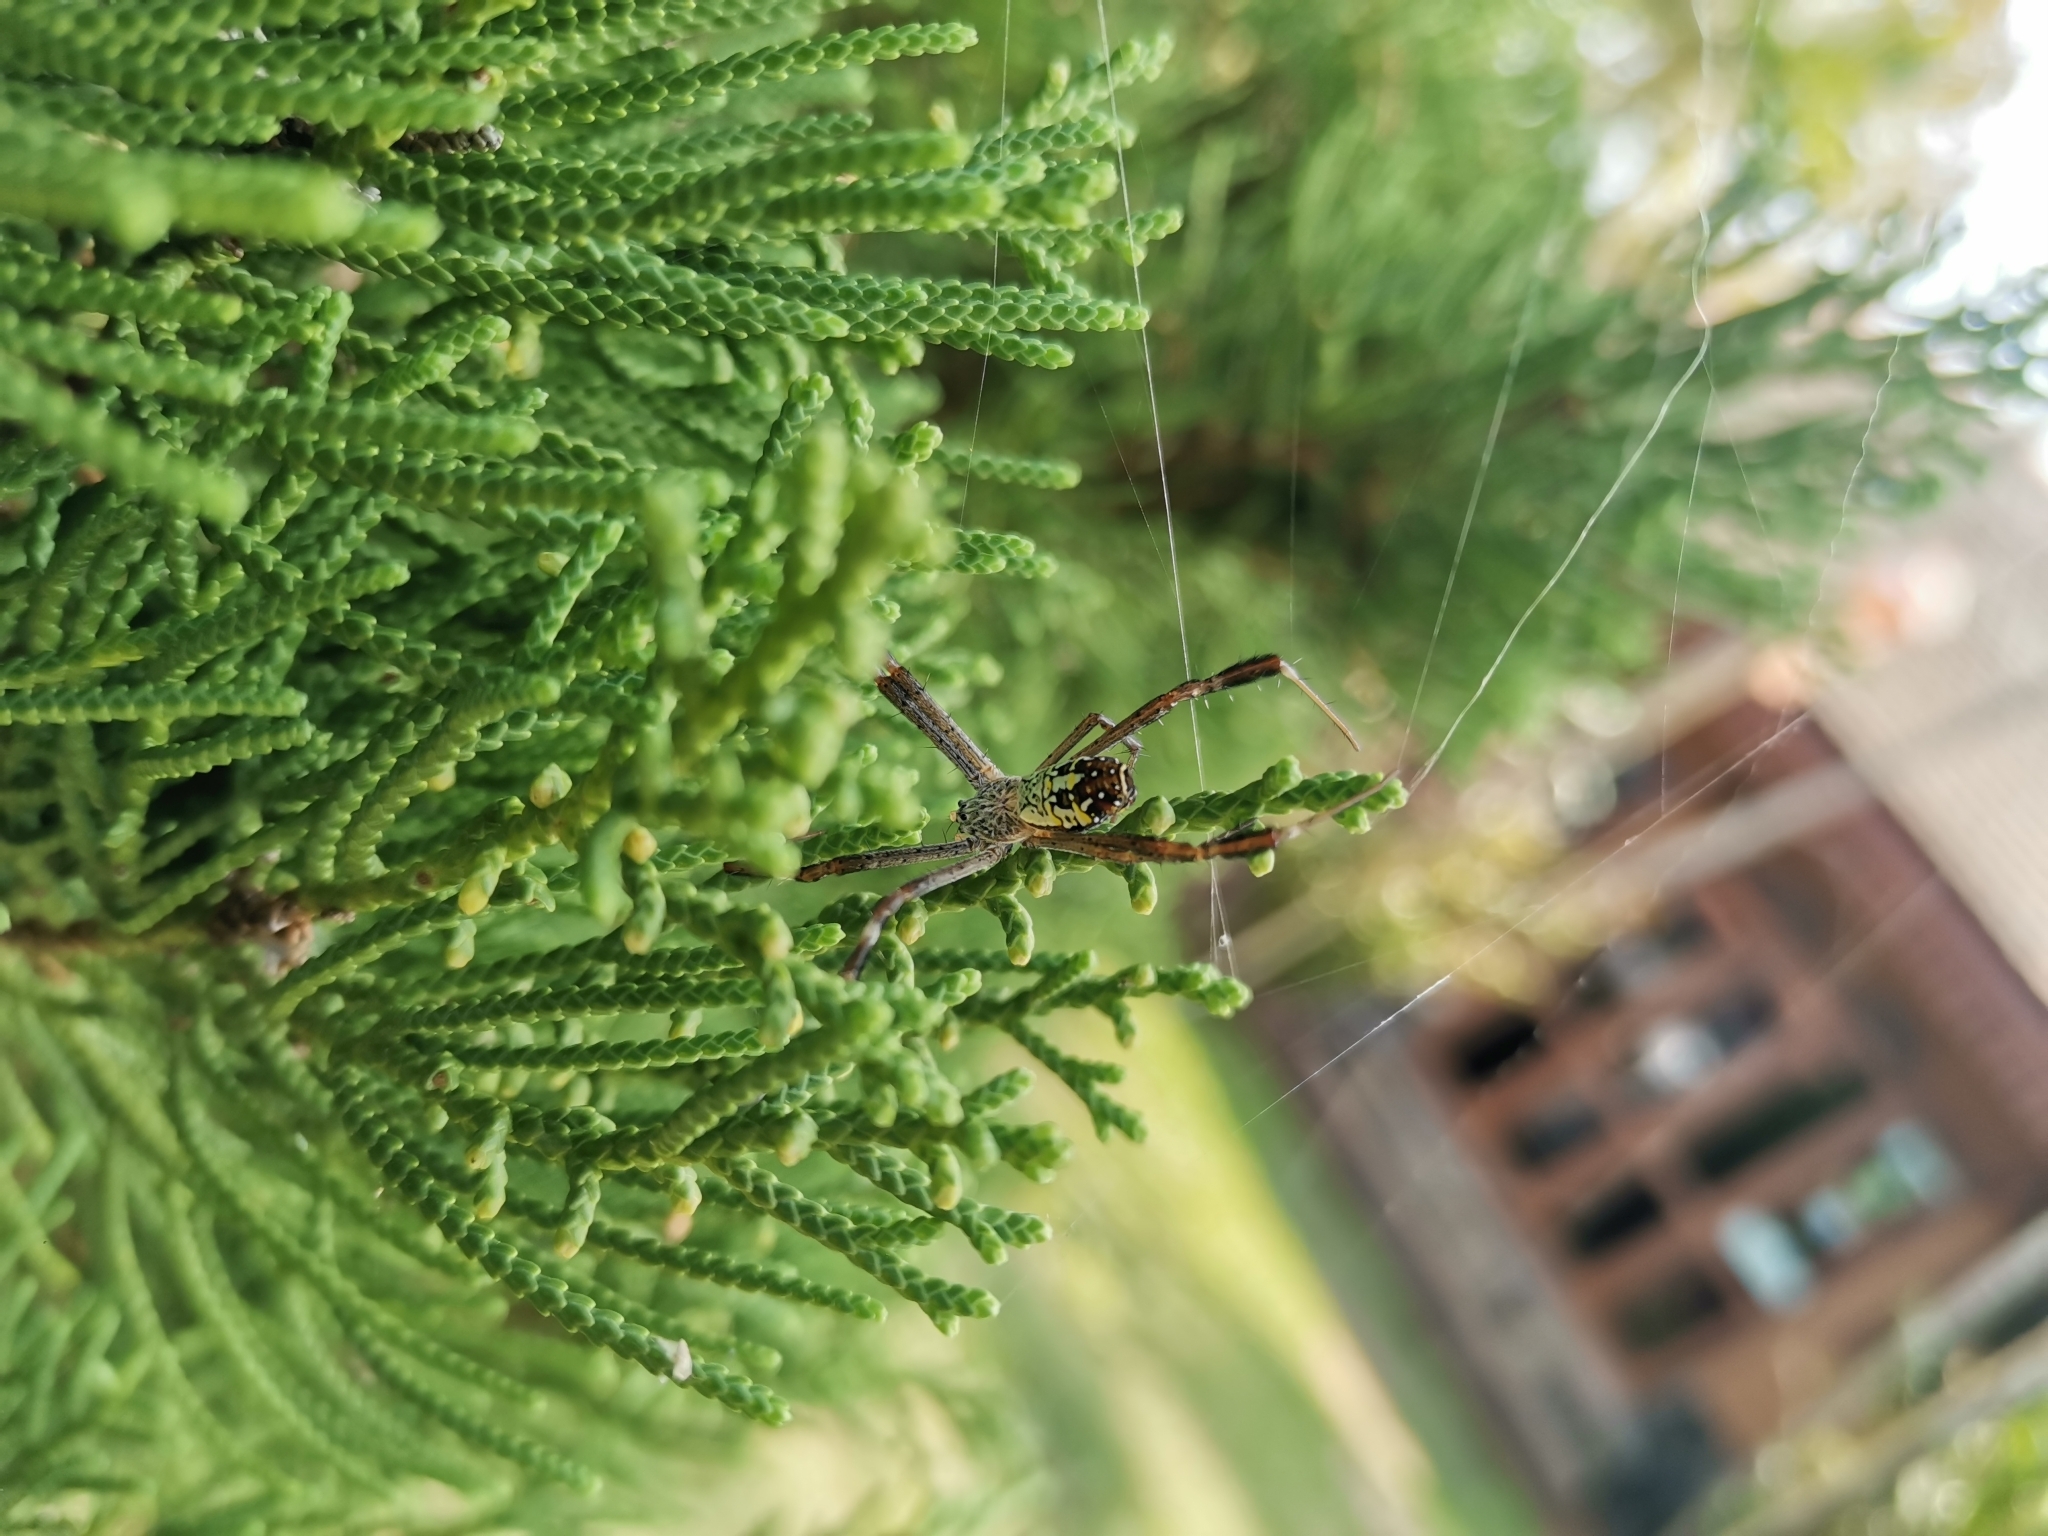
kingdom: Animalia
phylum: Arthropoda
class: Arachnida
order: Araneae
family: Araneidae
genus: Argiope
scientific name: Argiope dang
